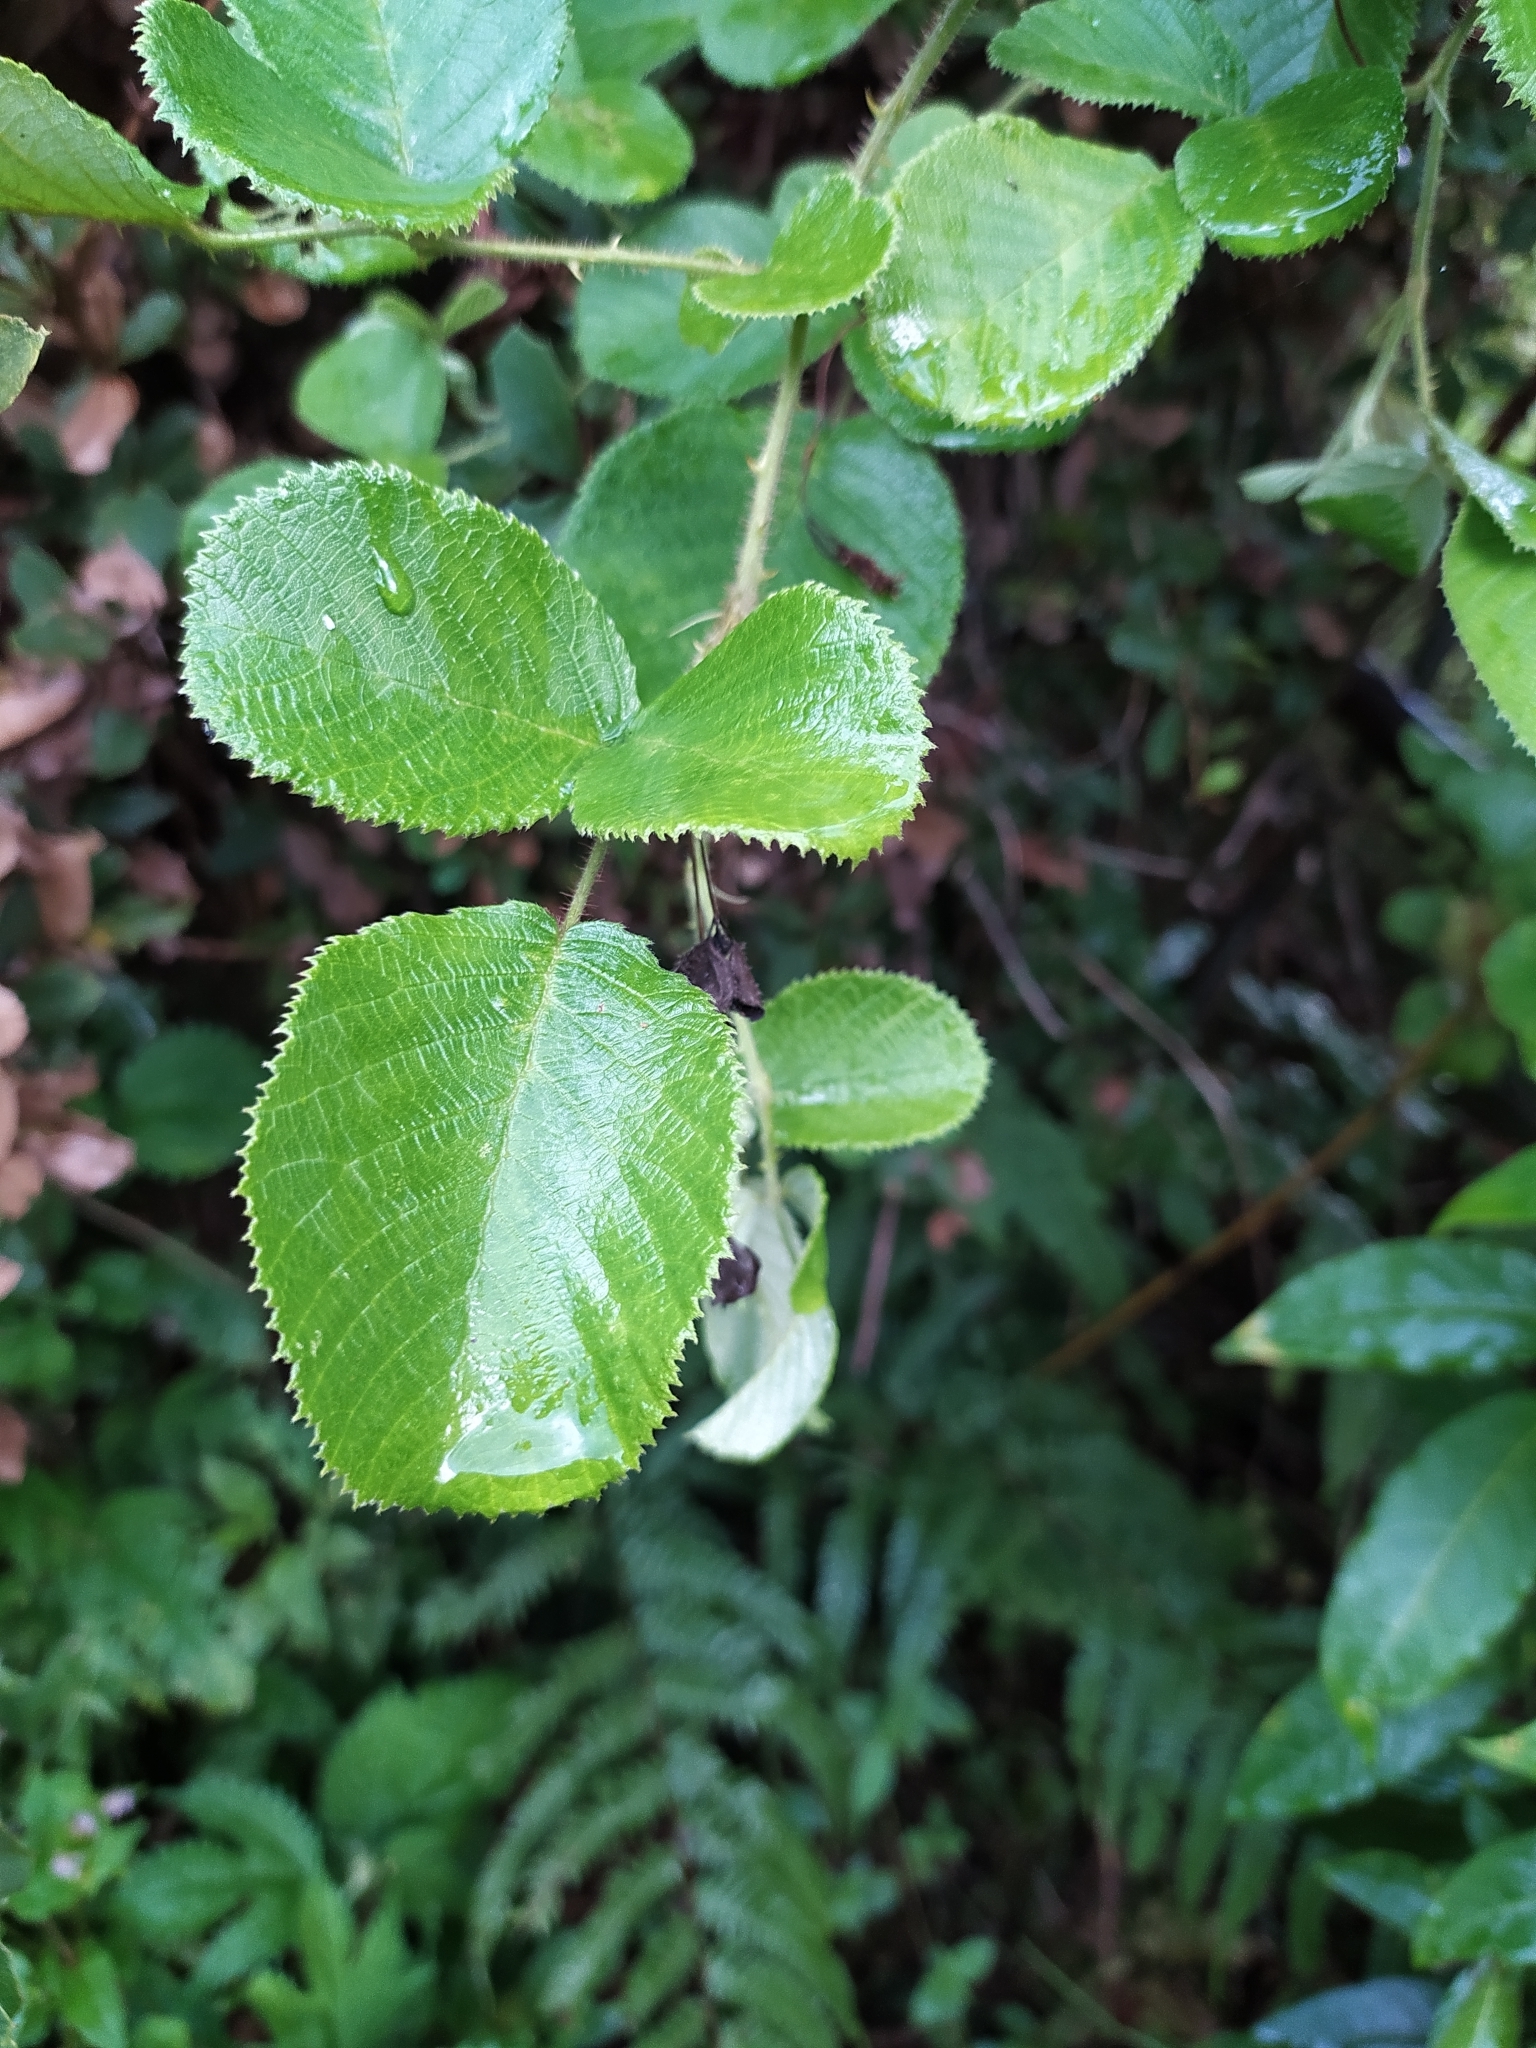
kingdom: Plantae
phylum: Tracheophyta
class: Magnoliopsida
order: Rosales
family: Rosaceae
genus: Rubus
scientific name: Rubus ellipticus
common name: Cheeseberry
